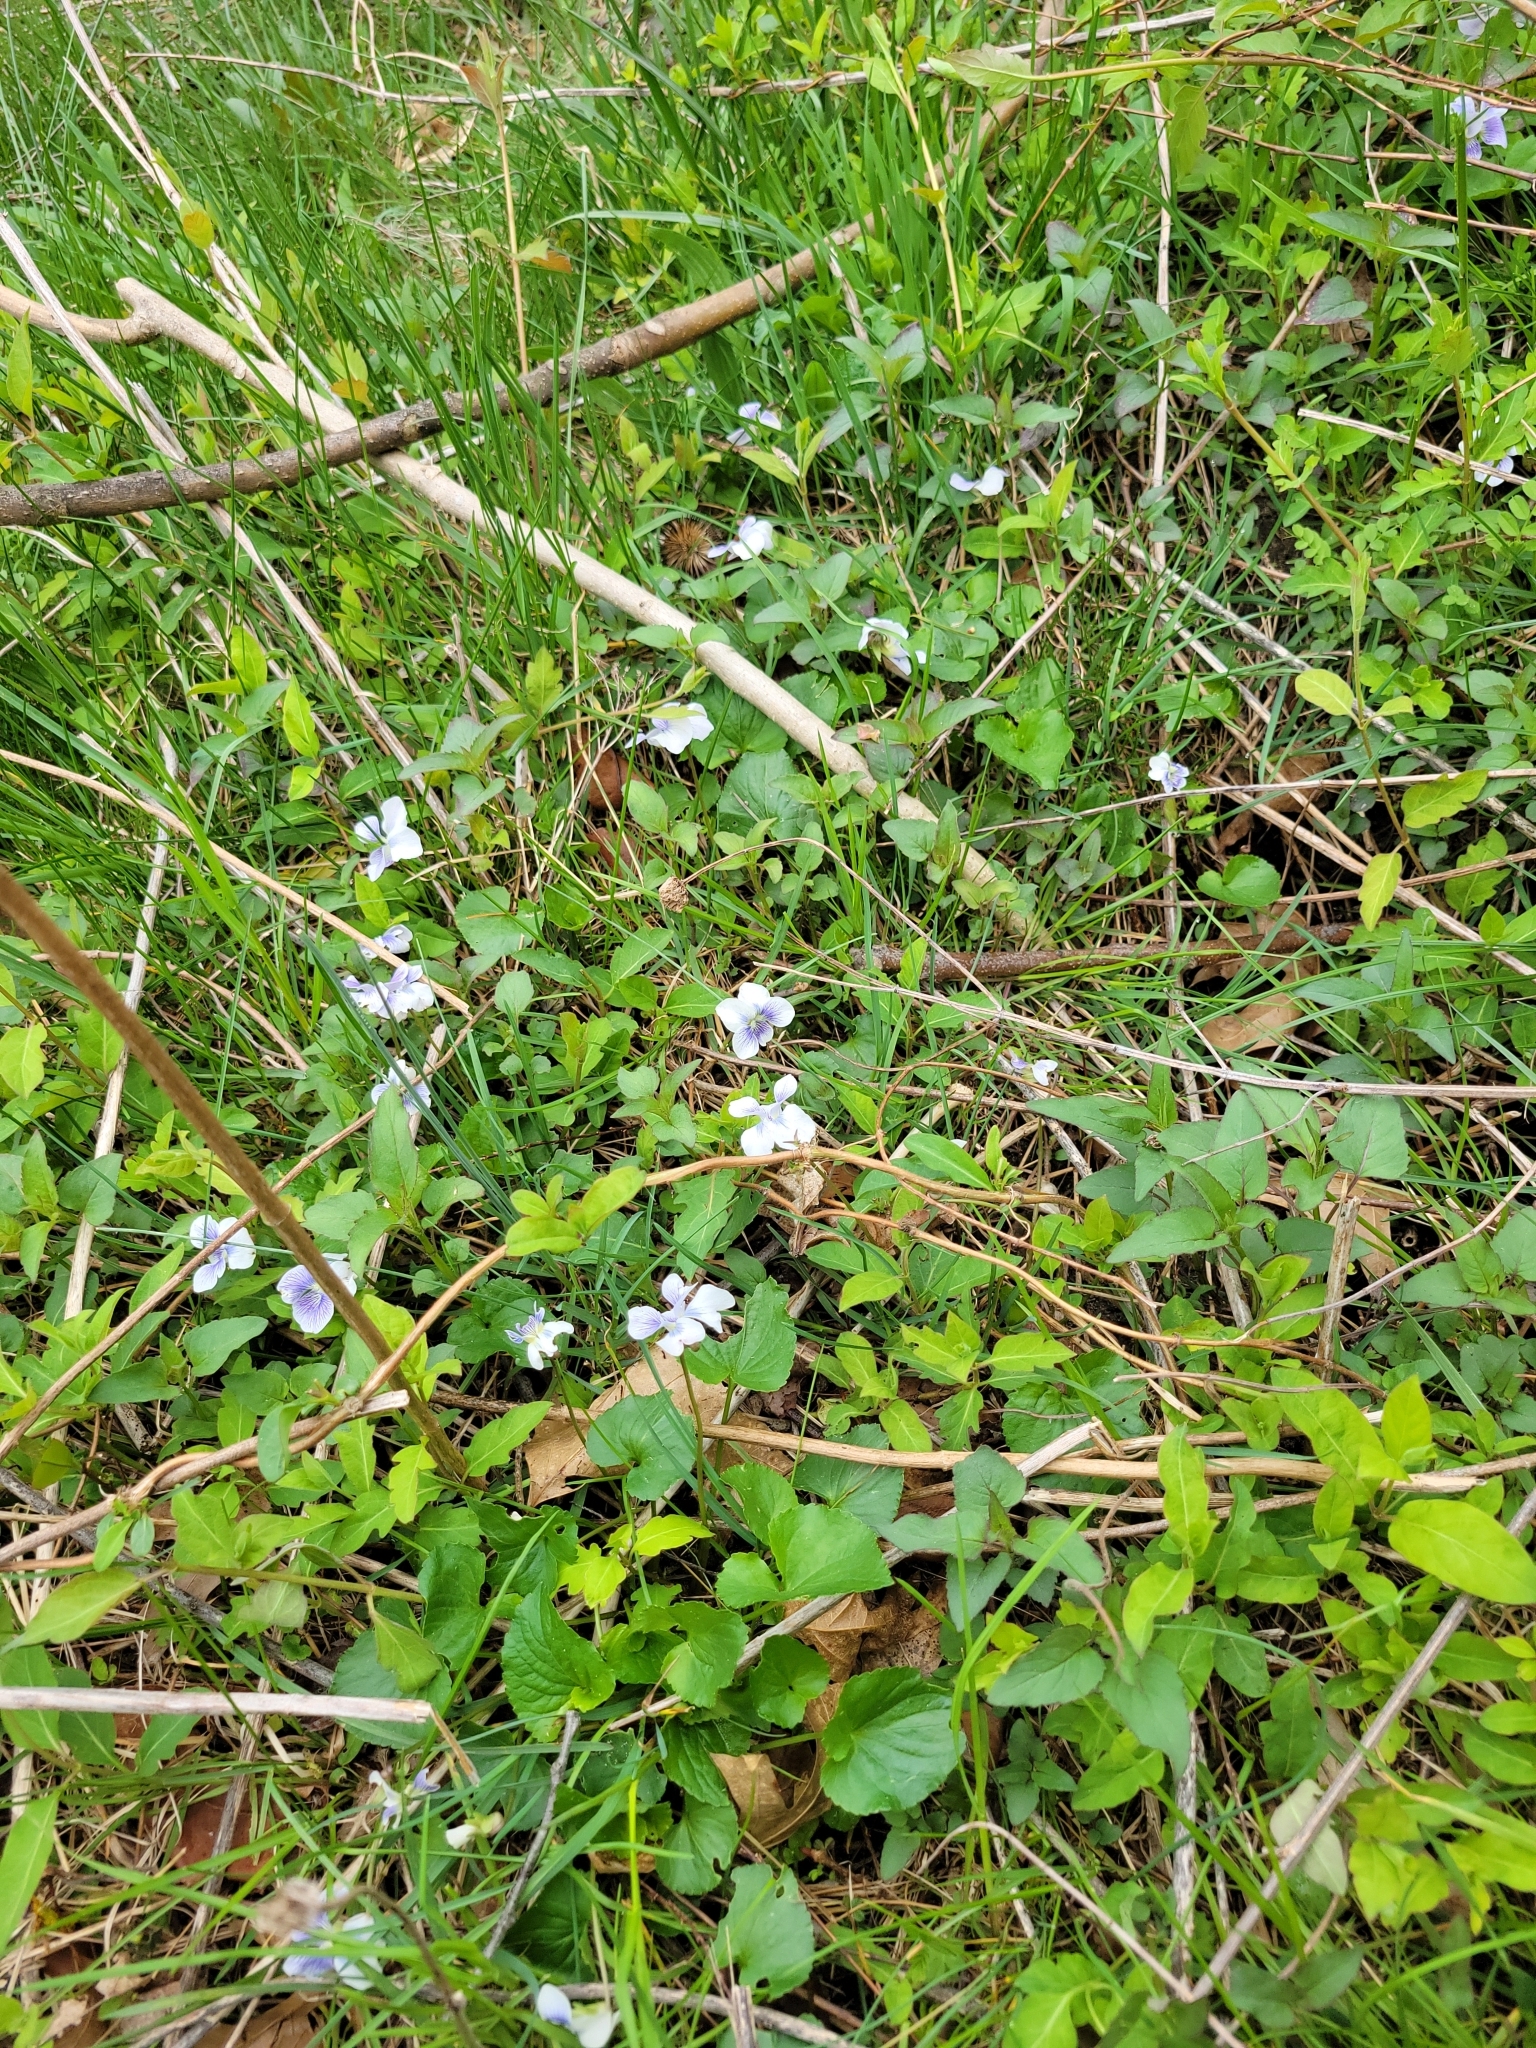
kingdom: Plantae
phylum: Tracheophyta
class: Magnoliopsida
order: Malpighiales
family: Violaceae
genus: Viola
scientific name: Viola sororia
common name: Dooryard violet
